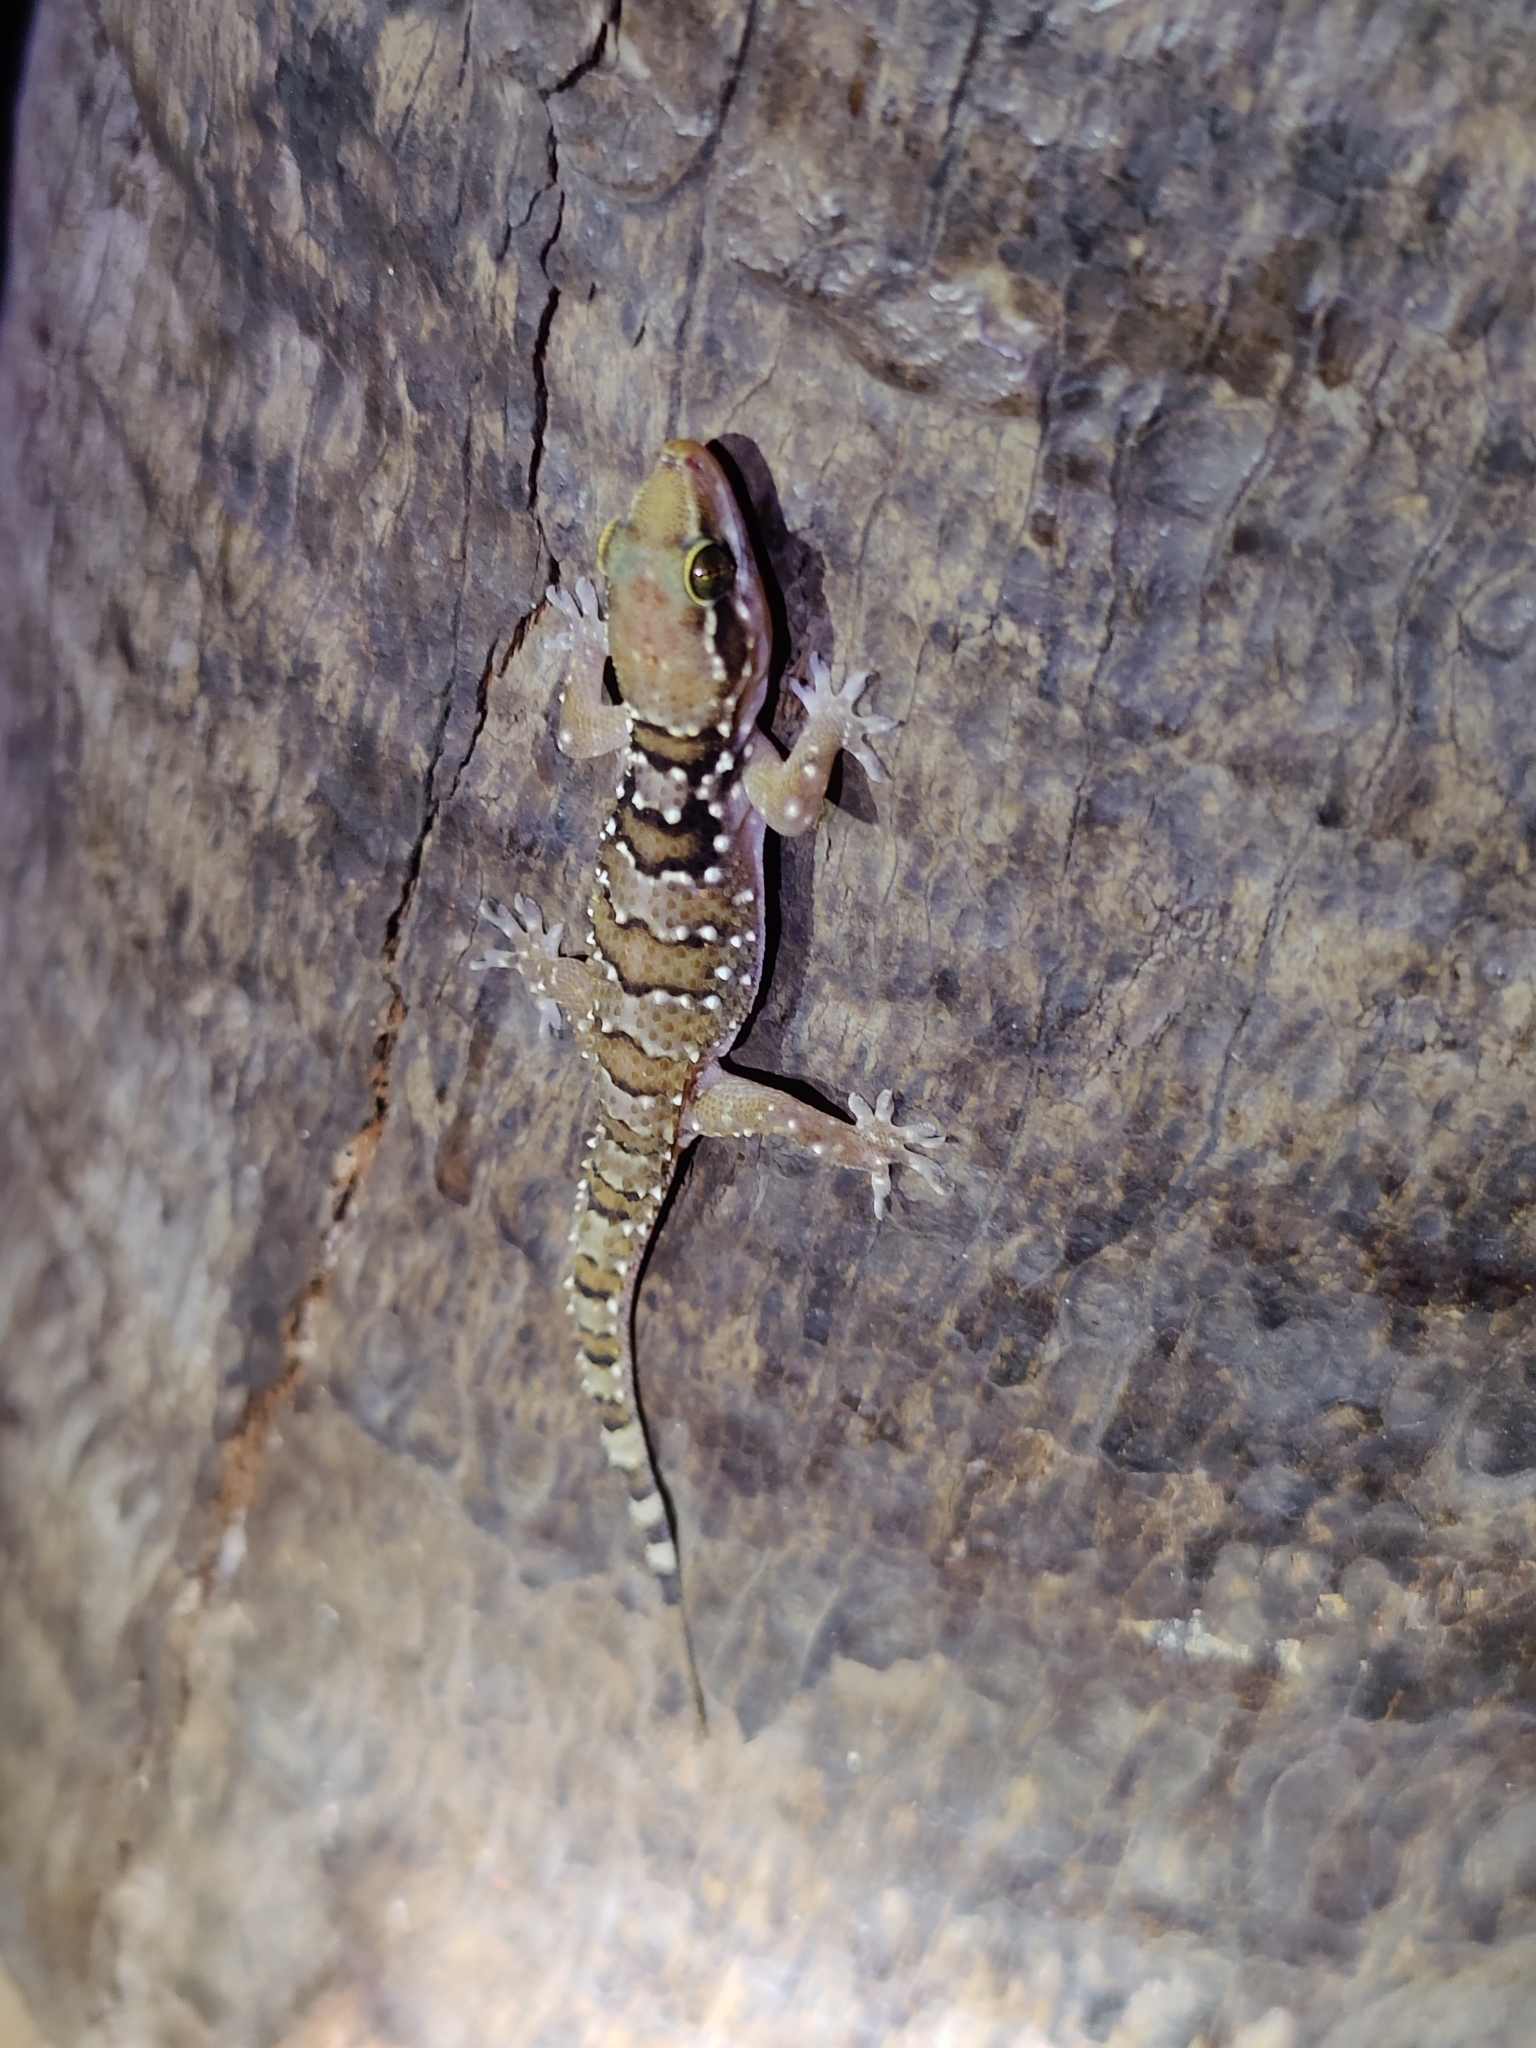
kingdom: Animalia
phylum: Chordata
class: Squamata
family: Gekkonidae
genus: Hemidactylus
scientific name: Hemidactylus triedrus
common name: Blotched house gecko
